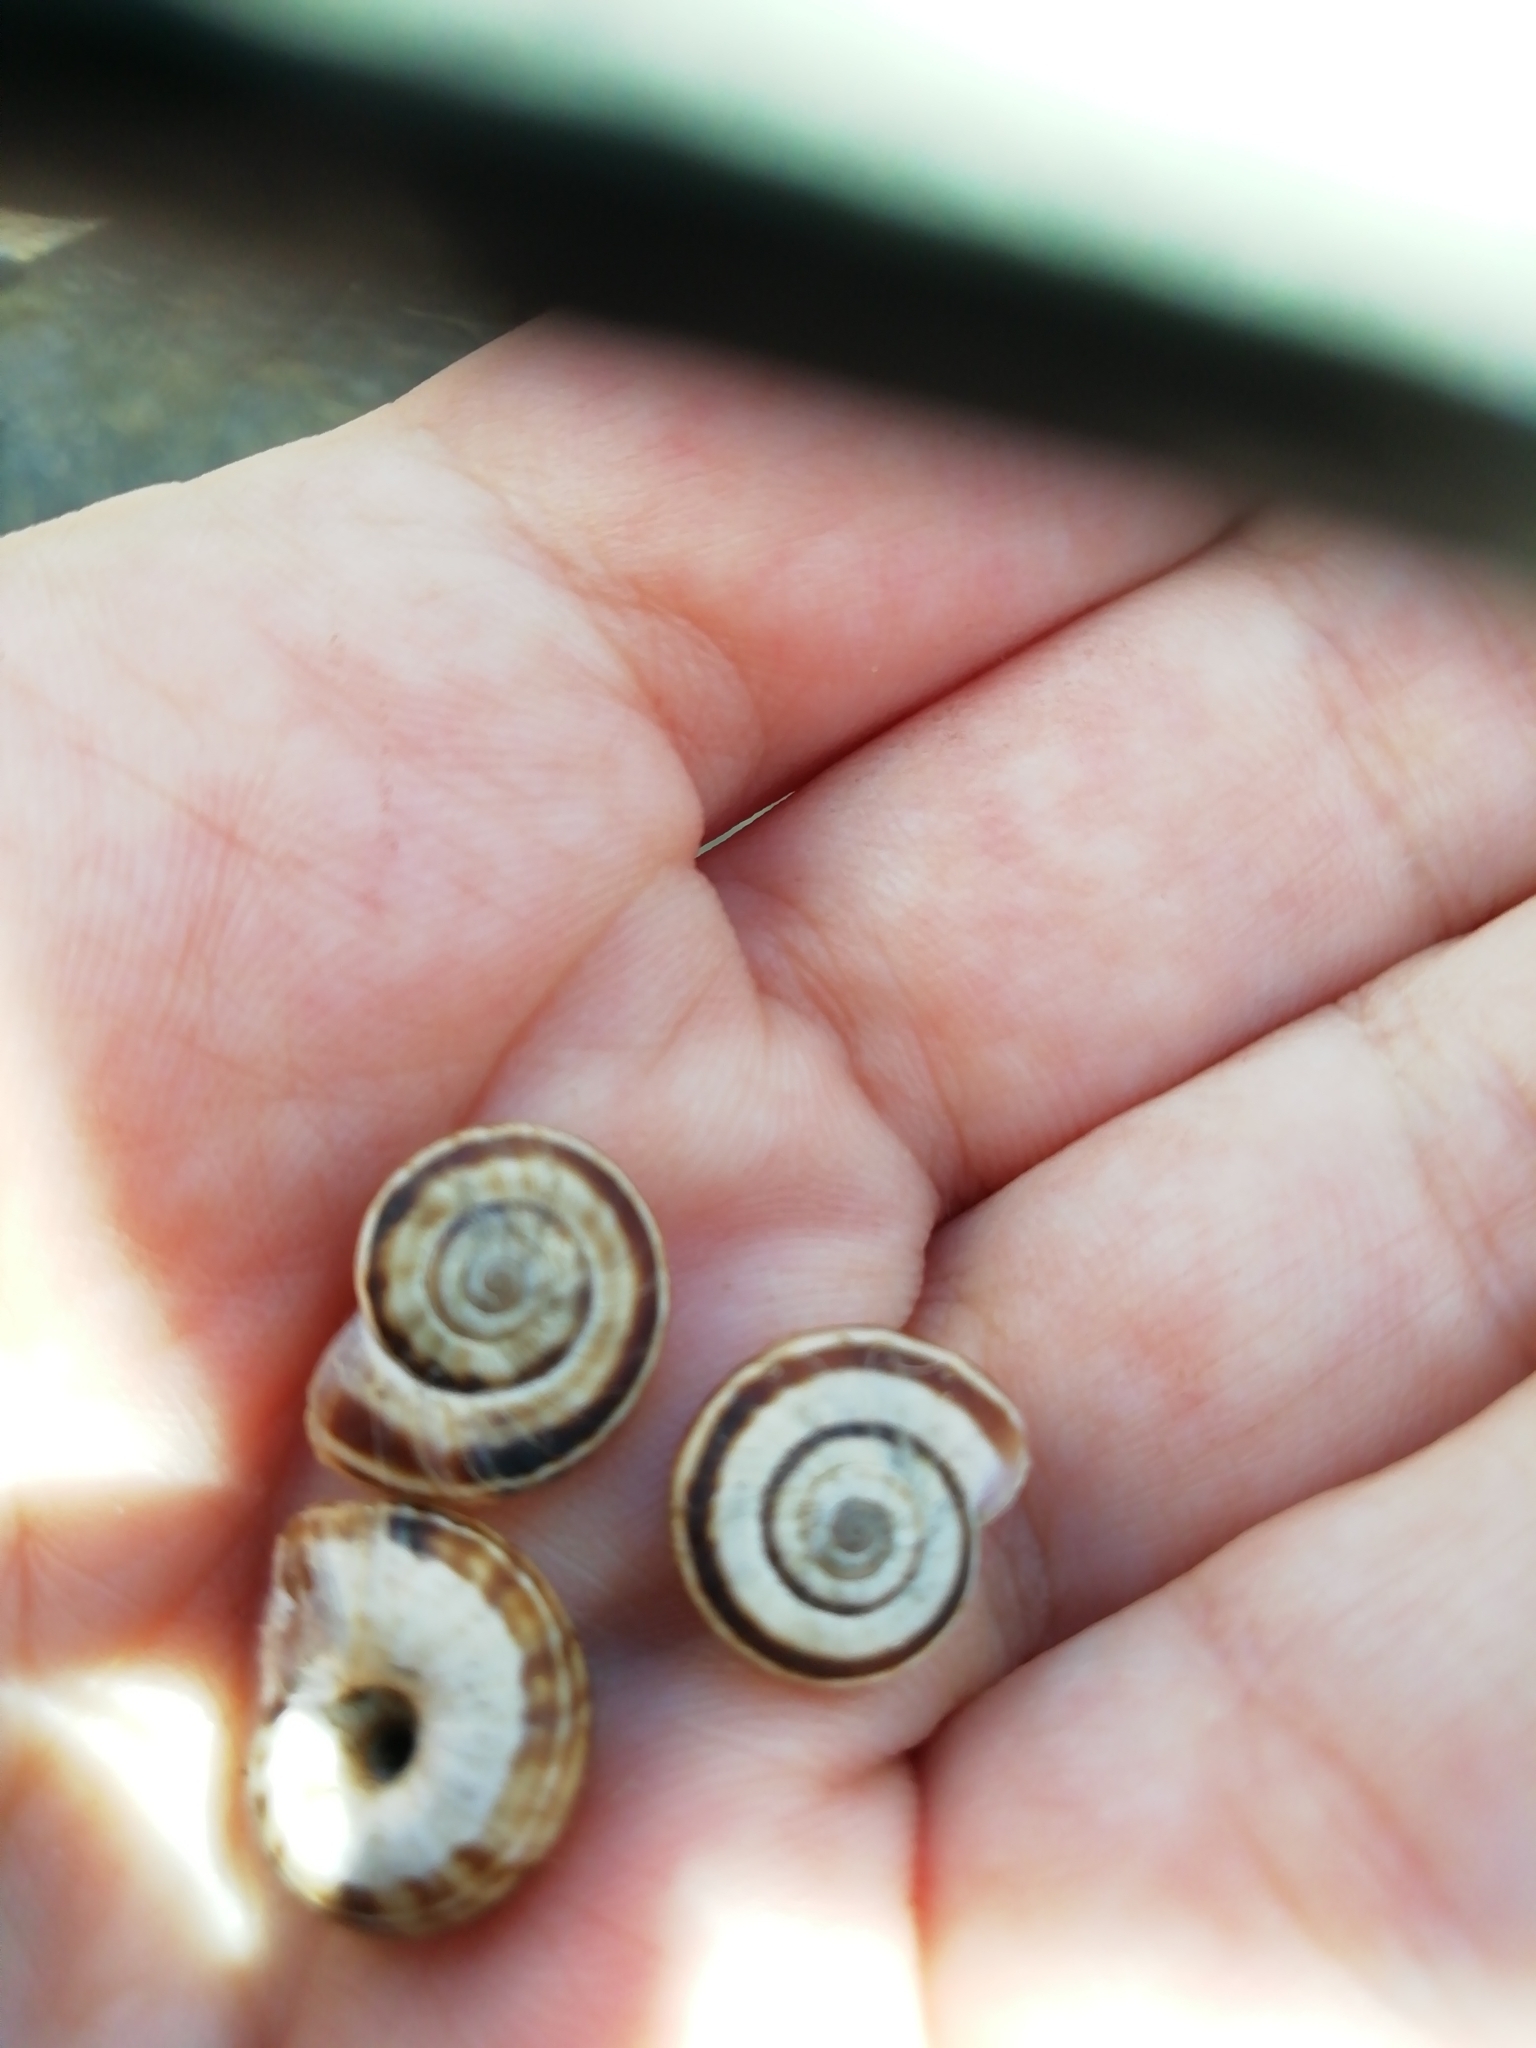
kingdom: Animalia
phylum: Mollusca
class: Gastropoda
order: Stylommatophora
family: Geomitridae
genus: Xerolenta
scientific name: Xerolenta obvia
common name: White heath snail
